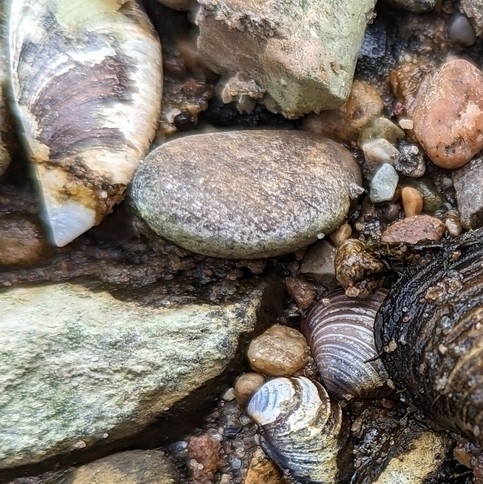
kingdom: Animalia
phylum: Mollusca
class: Bivalvia
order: Myida
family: Dreissenidae
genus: Dreissena
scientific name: Dreissena polymorpha
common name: Zebra mussel
